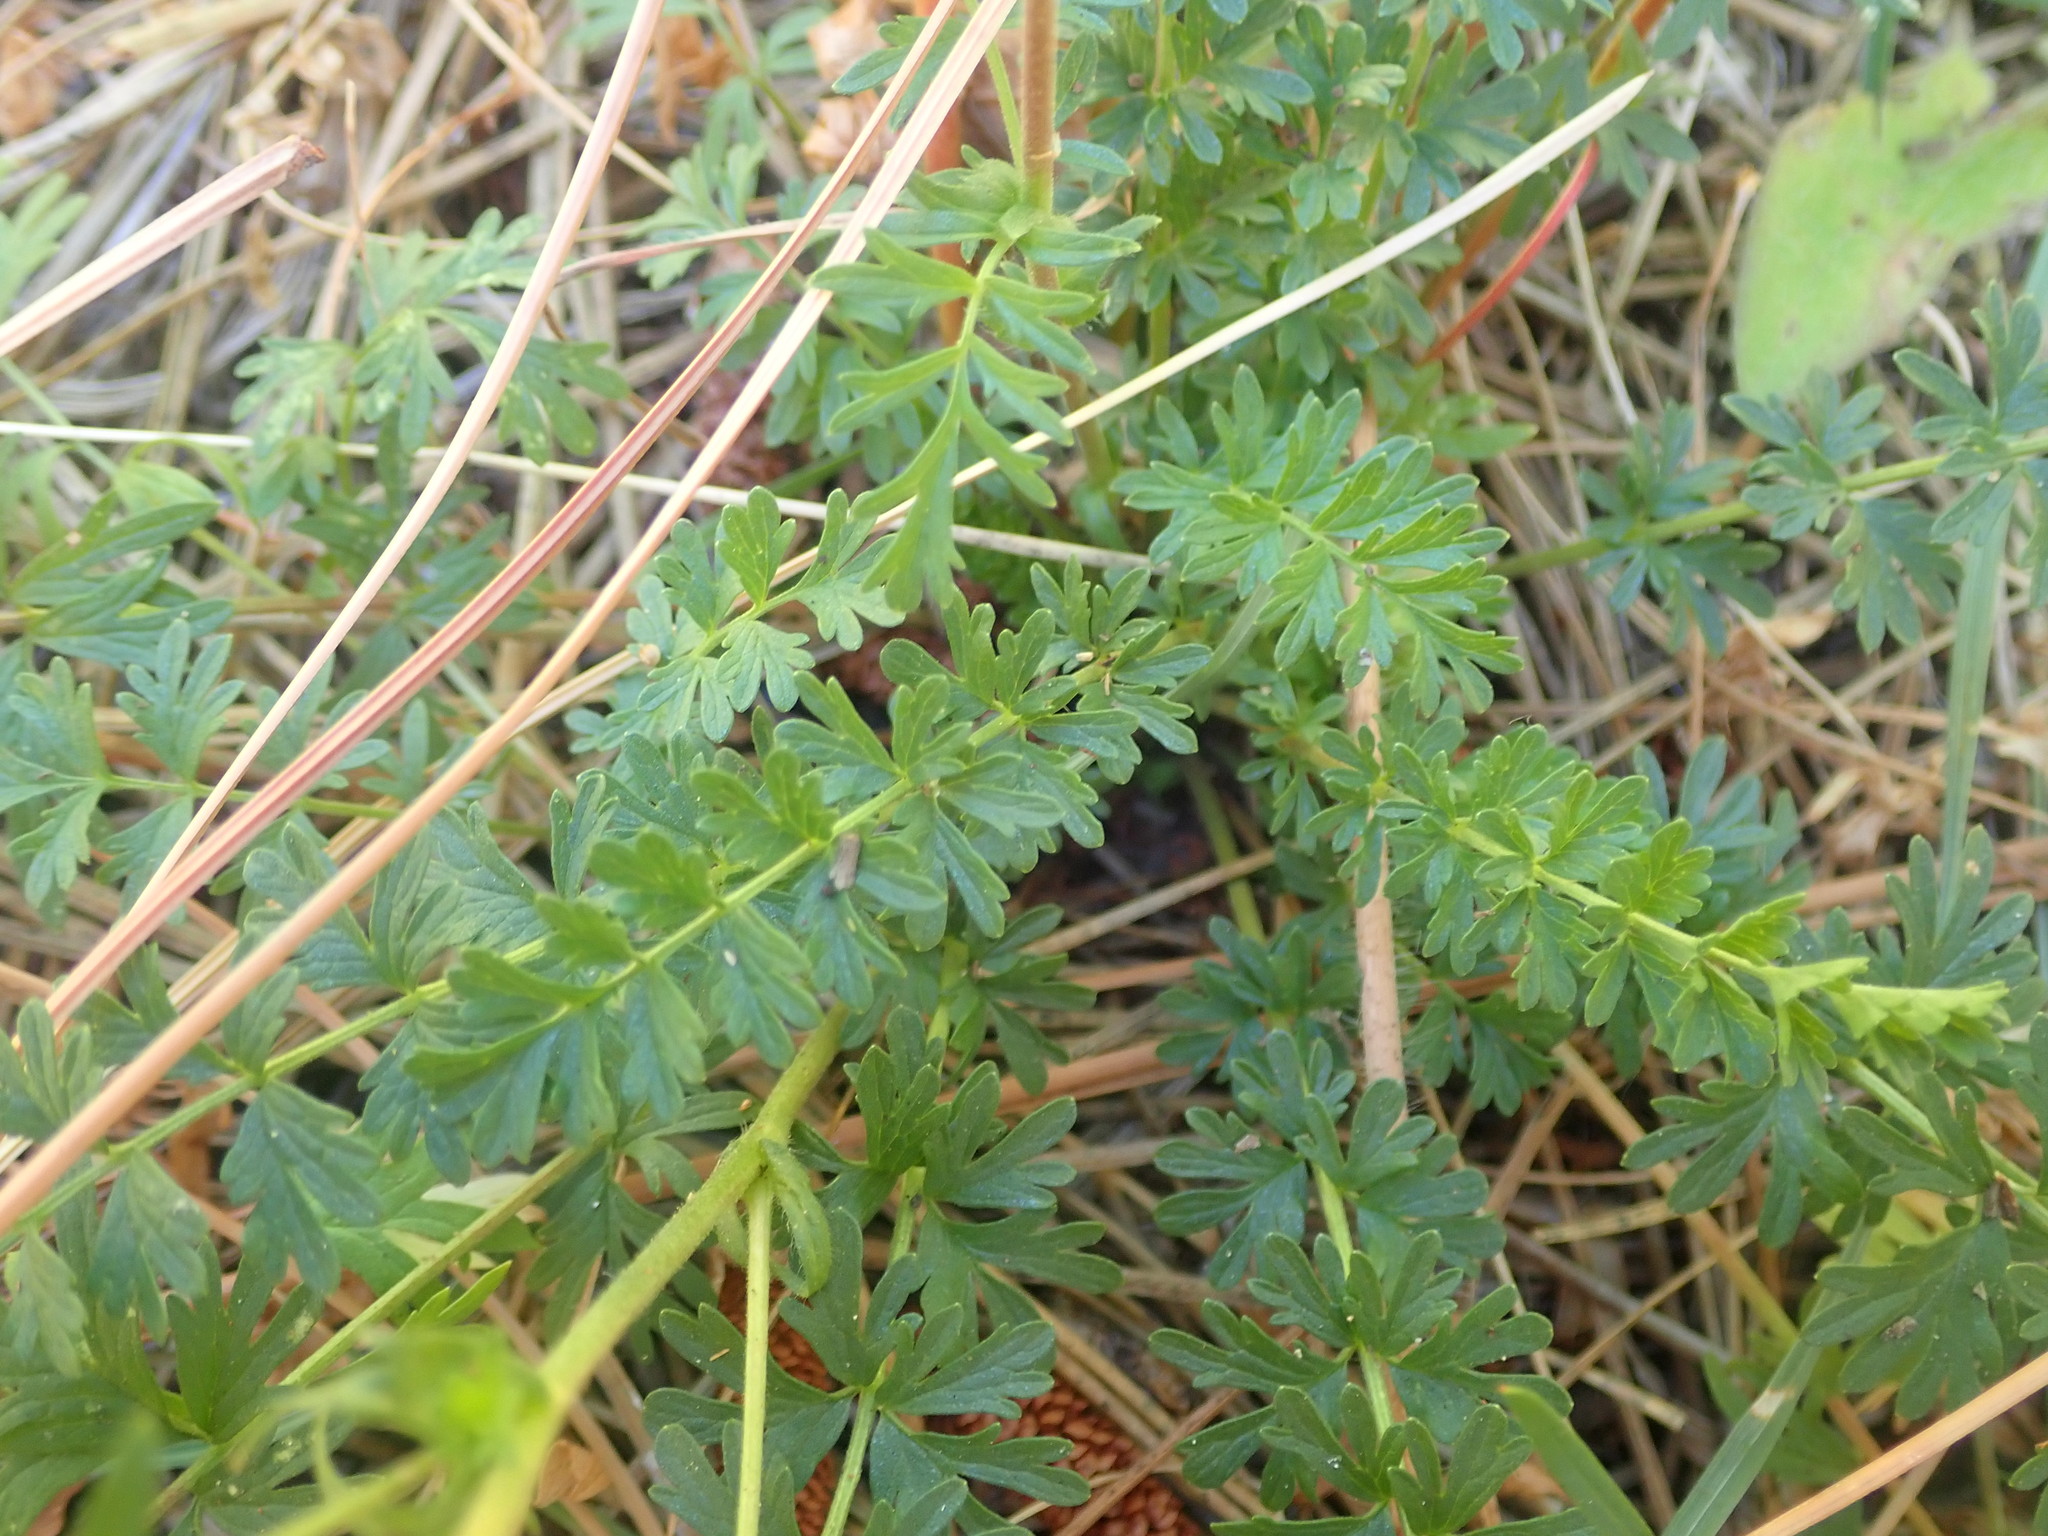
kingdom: Plantae
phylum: Tracheophyta
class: Magnoliopsida
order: Rosales
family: Rosaceae
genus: Potentilla
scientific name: Potentilla douglasii
